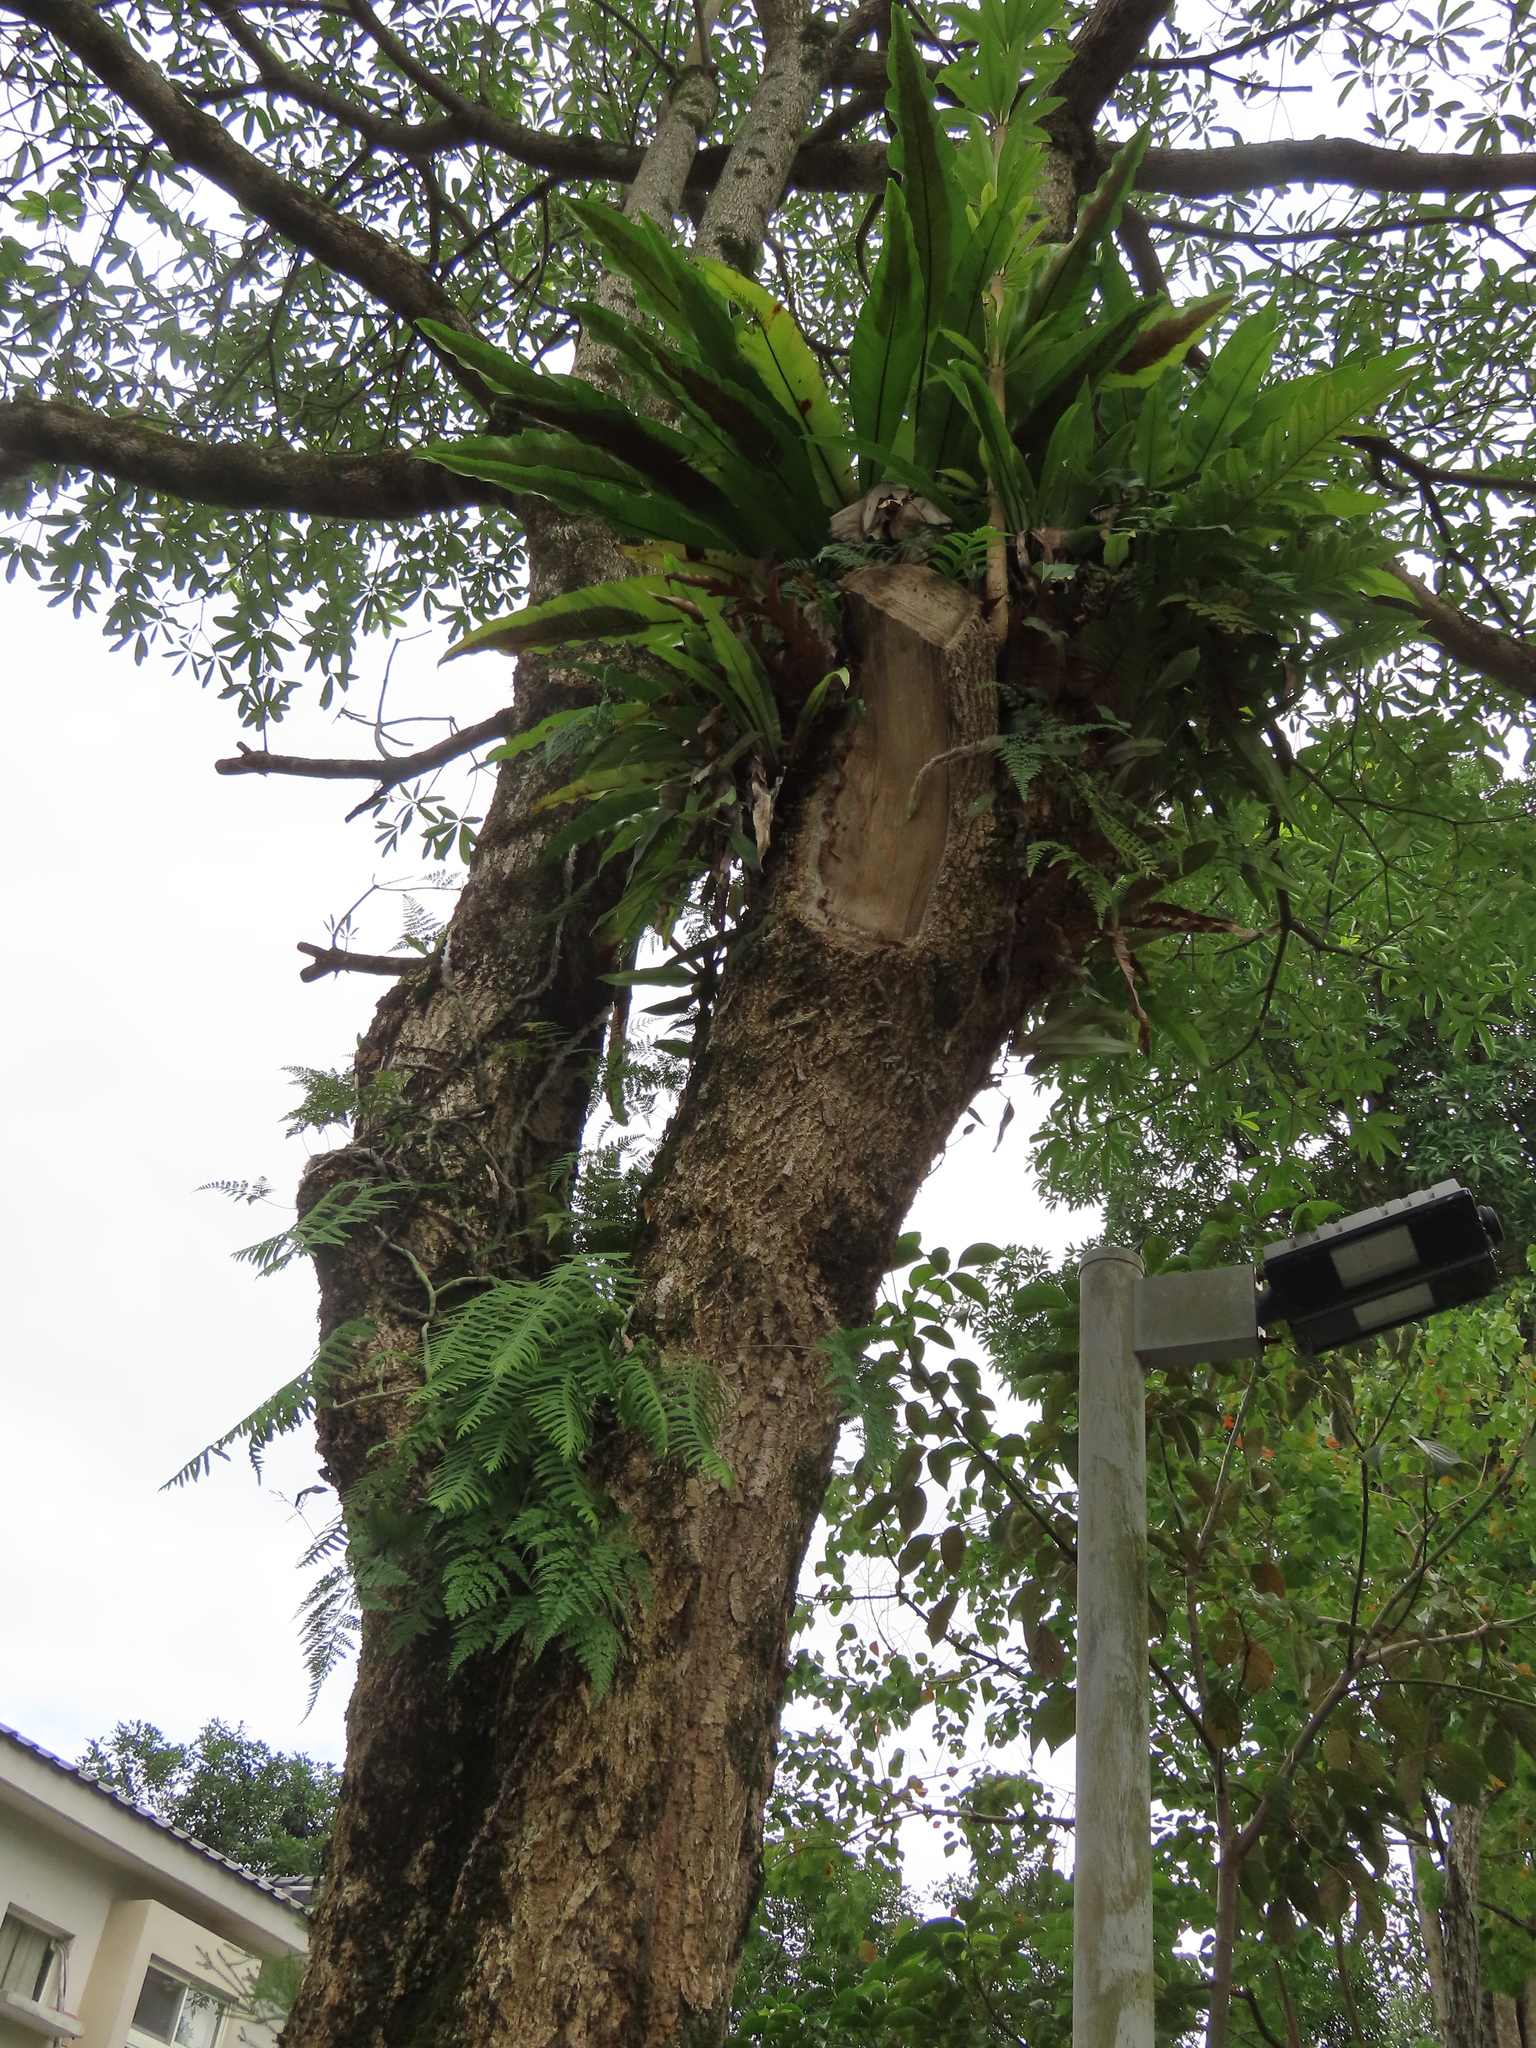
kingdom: Plantae
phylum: Tracheophyta
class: Polypodiopsida
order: Polypodiales
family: Davalliaceae
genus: Davallia
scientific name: Davallia griffithiana
